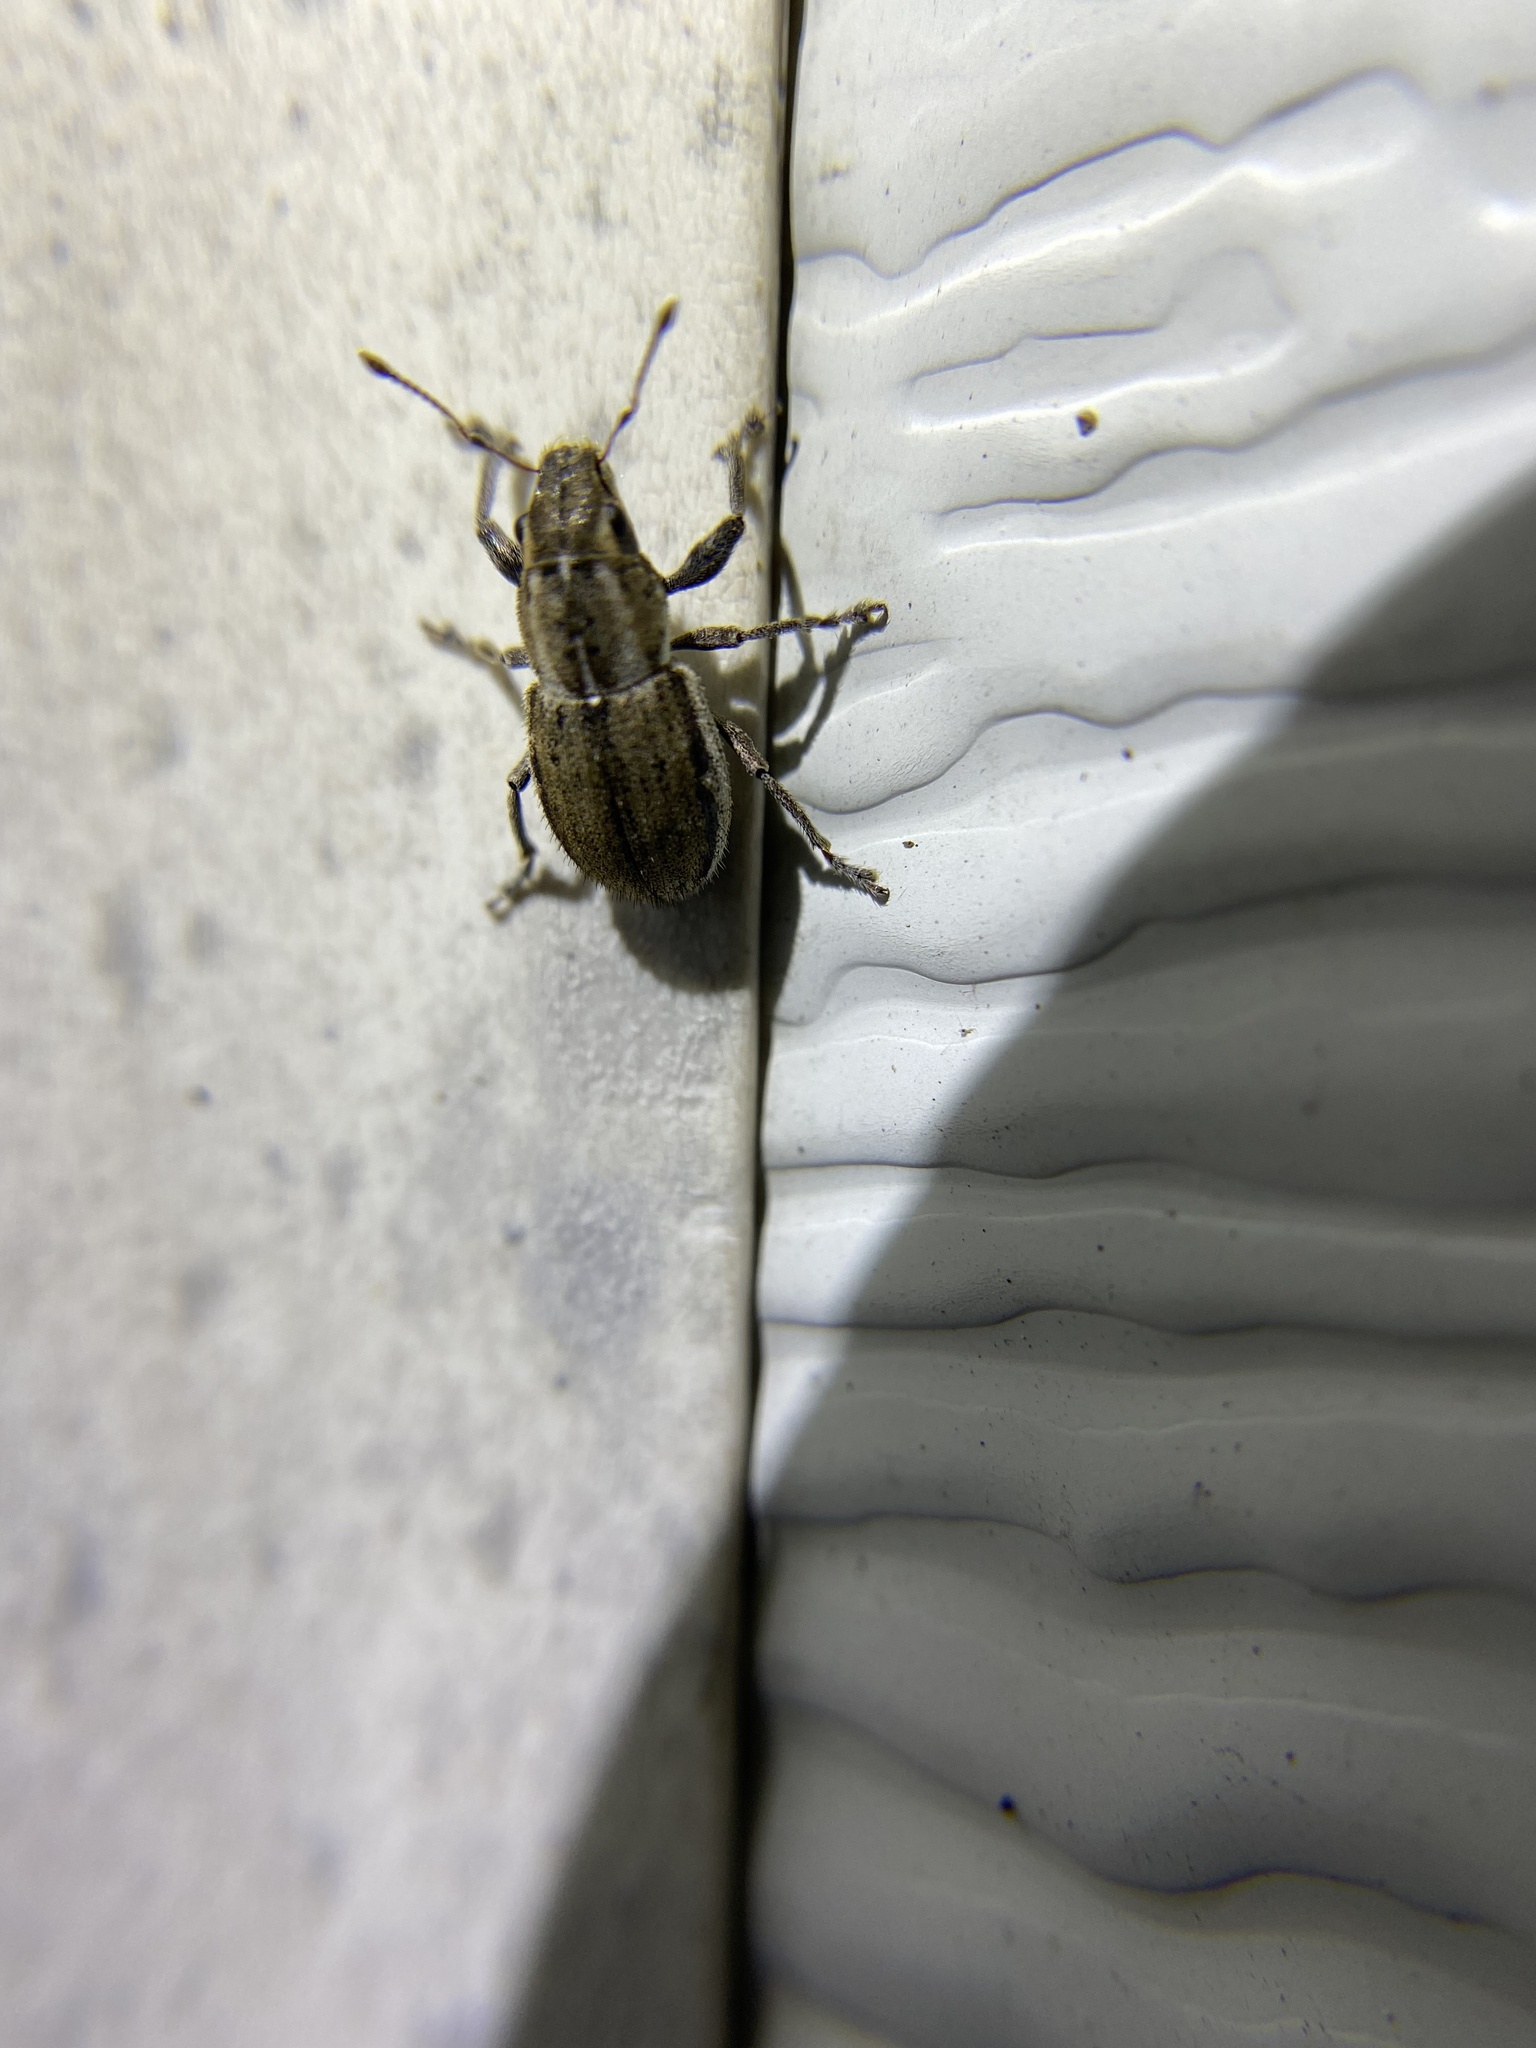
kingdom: Animalia
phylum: Arthropoda
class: Insecta
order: Coleoptera
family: Curculionidae
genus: Naupactus
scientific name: Naupactus peregrinus
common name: Whitefringed beetle
